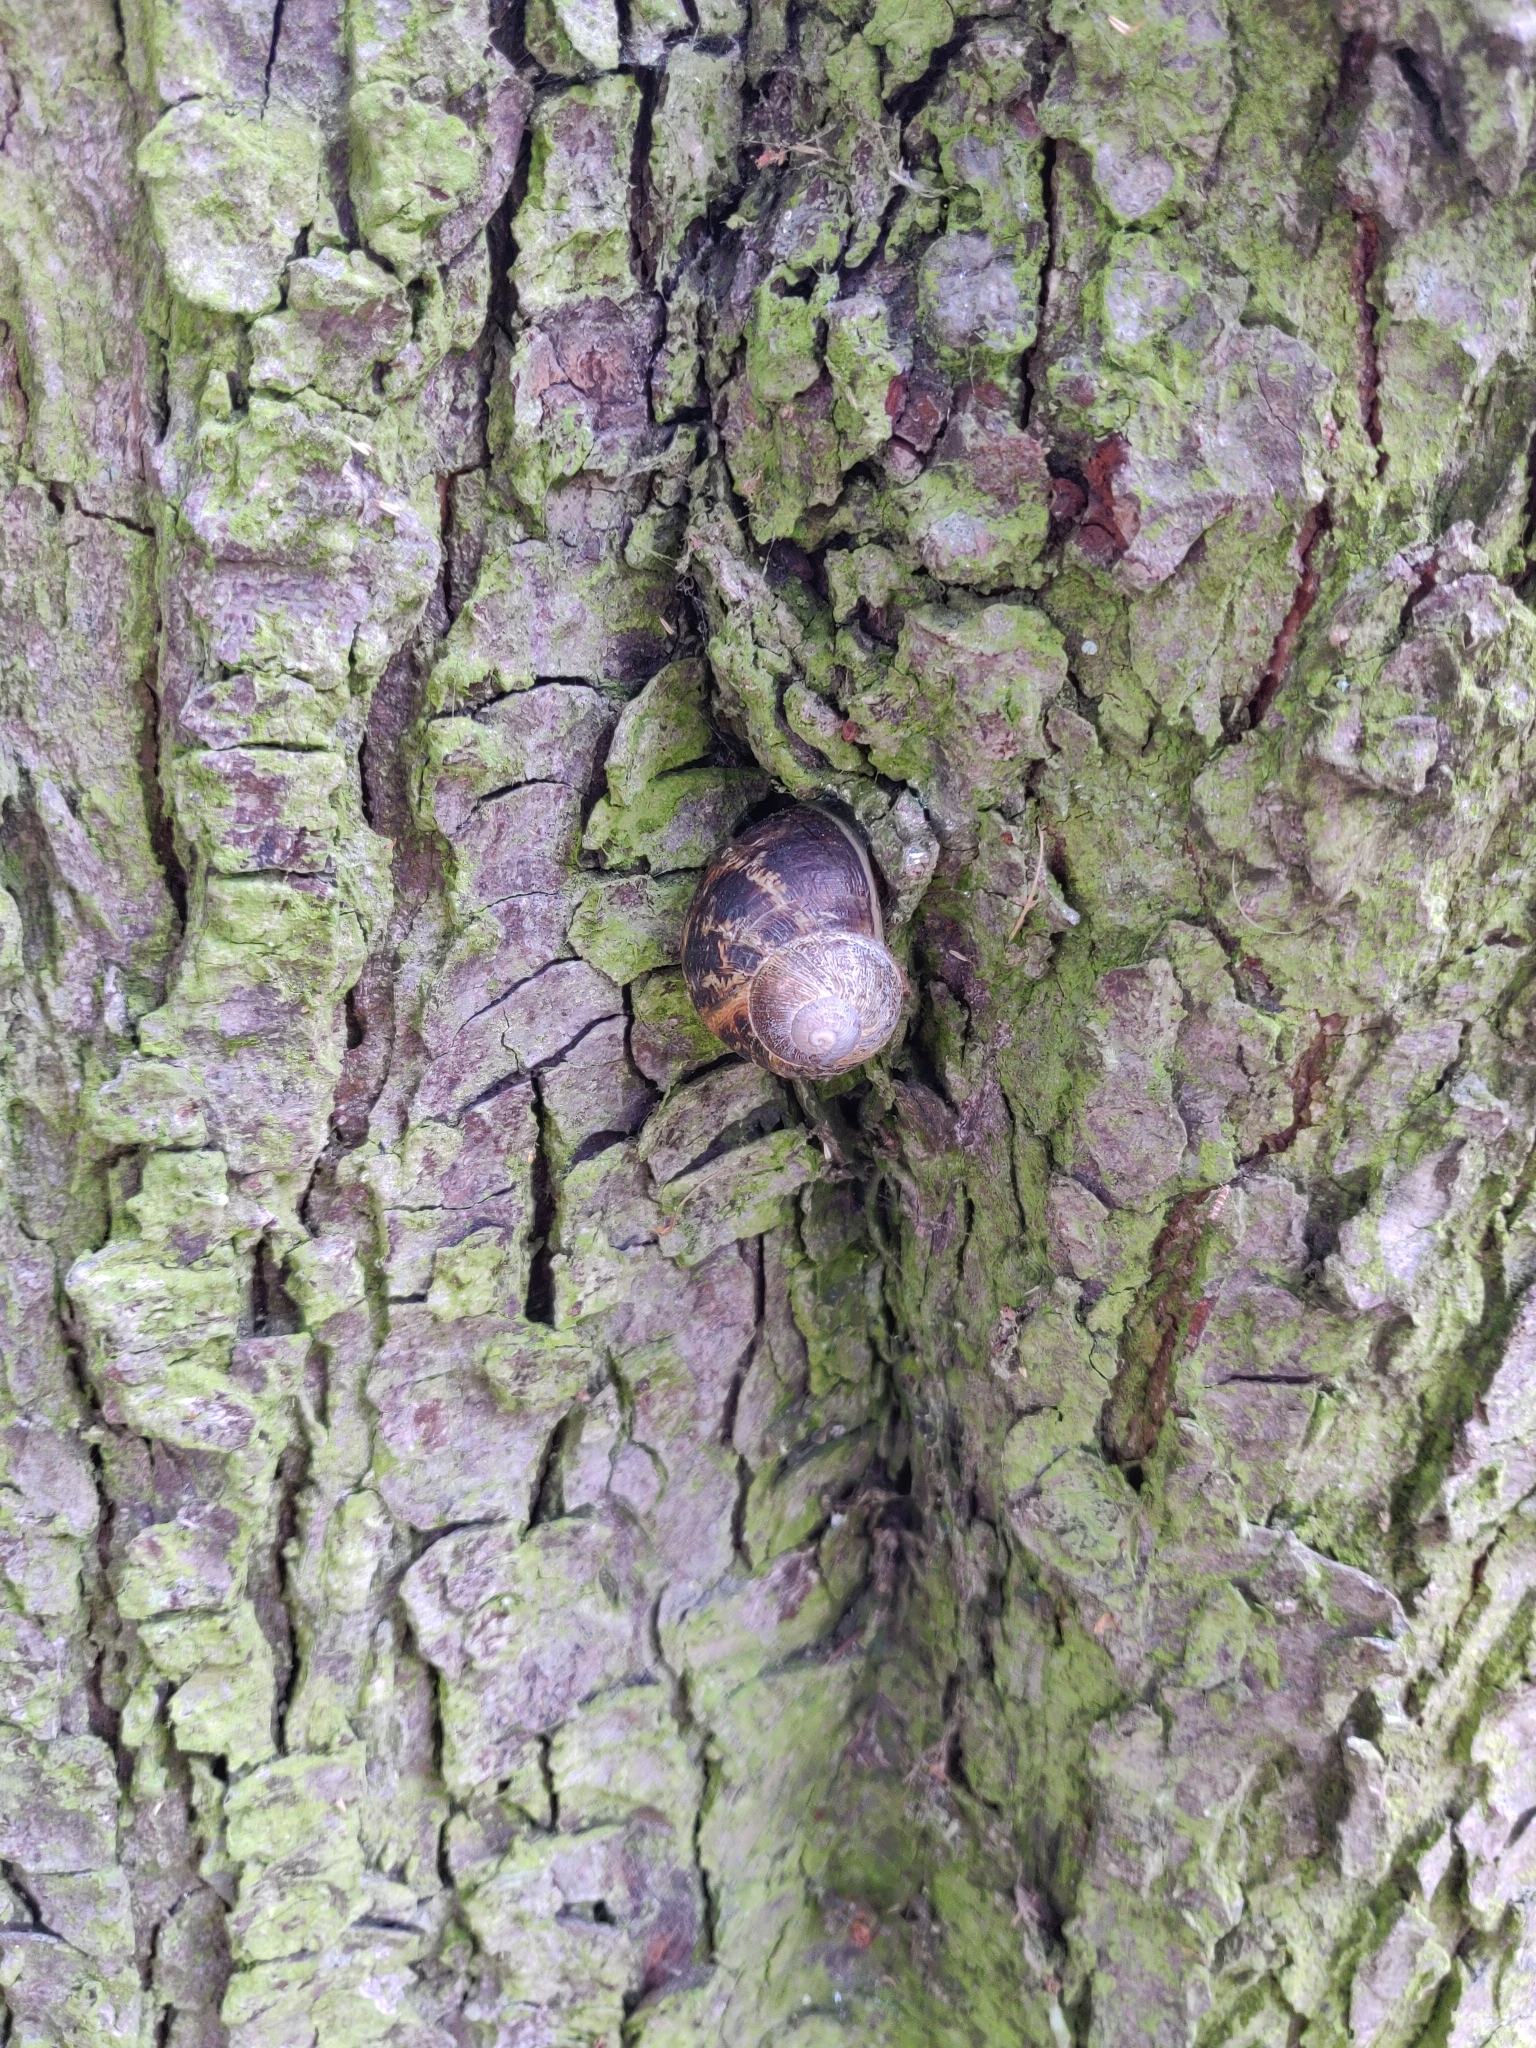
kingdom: Animalia
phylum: Mollusca
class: Gastropoda
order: Stylommatophora
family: Helicidae
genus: Cornu
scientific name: Cornu aspersum
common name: Brown garden snail
